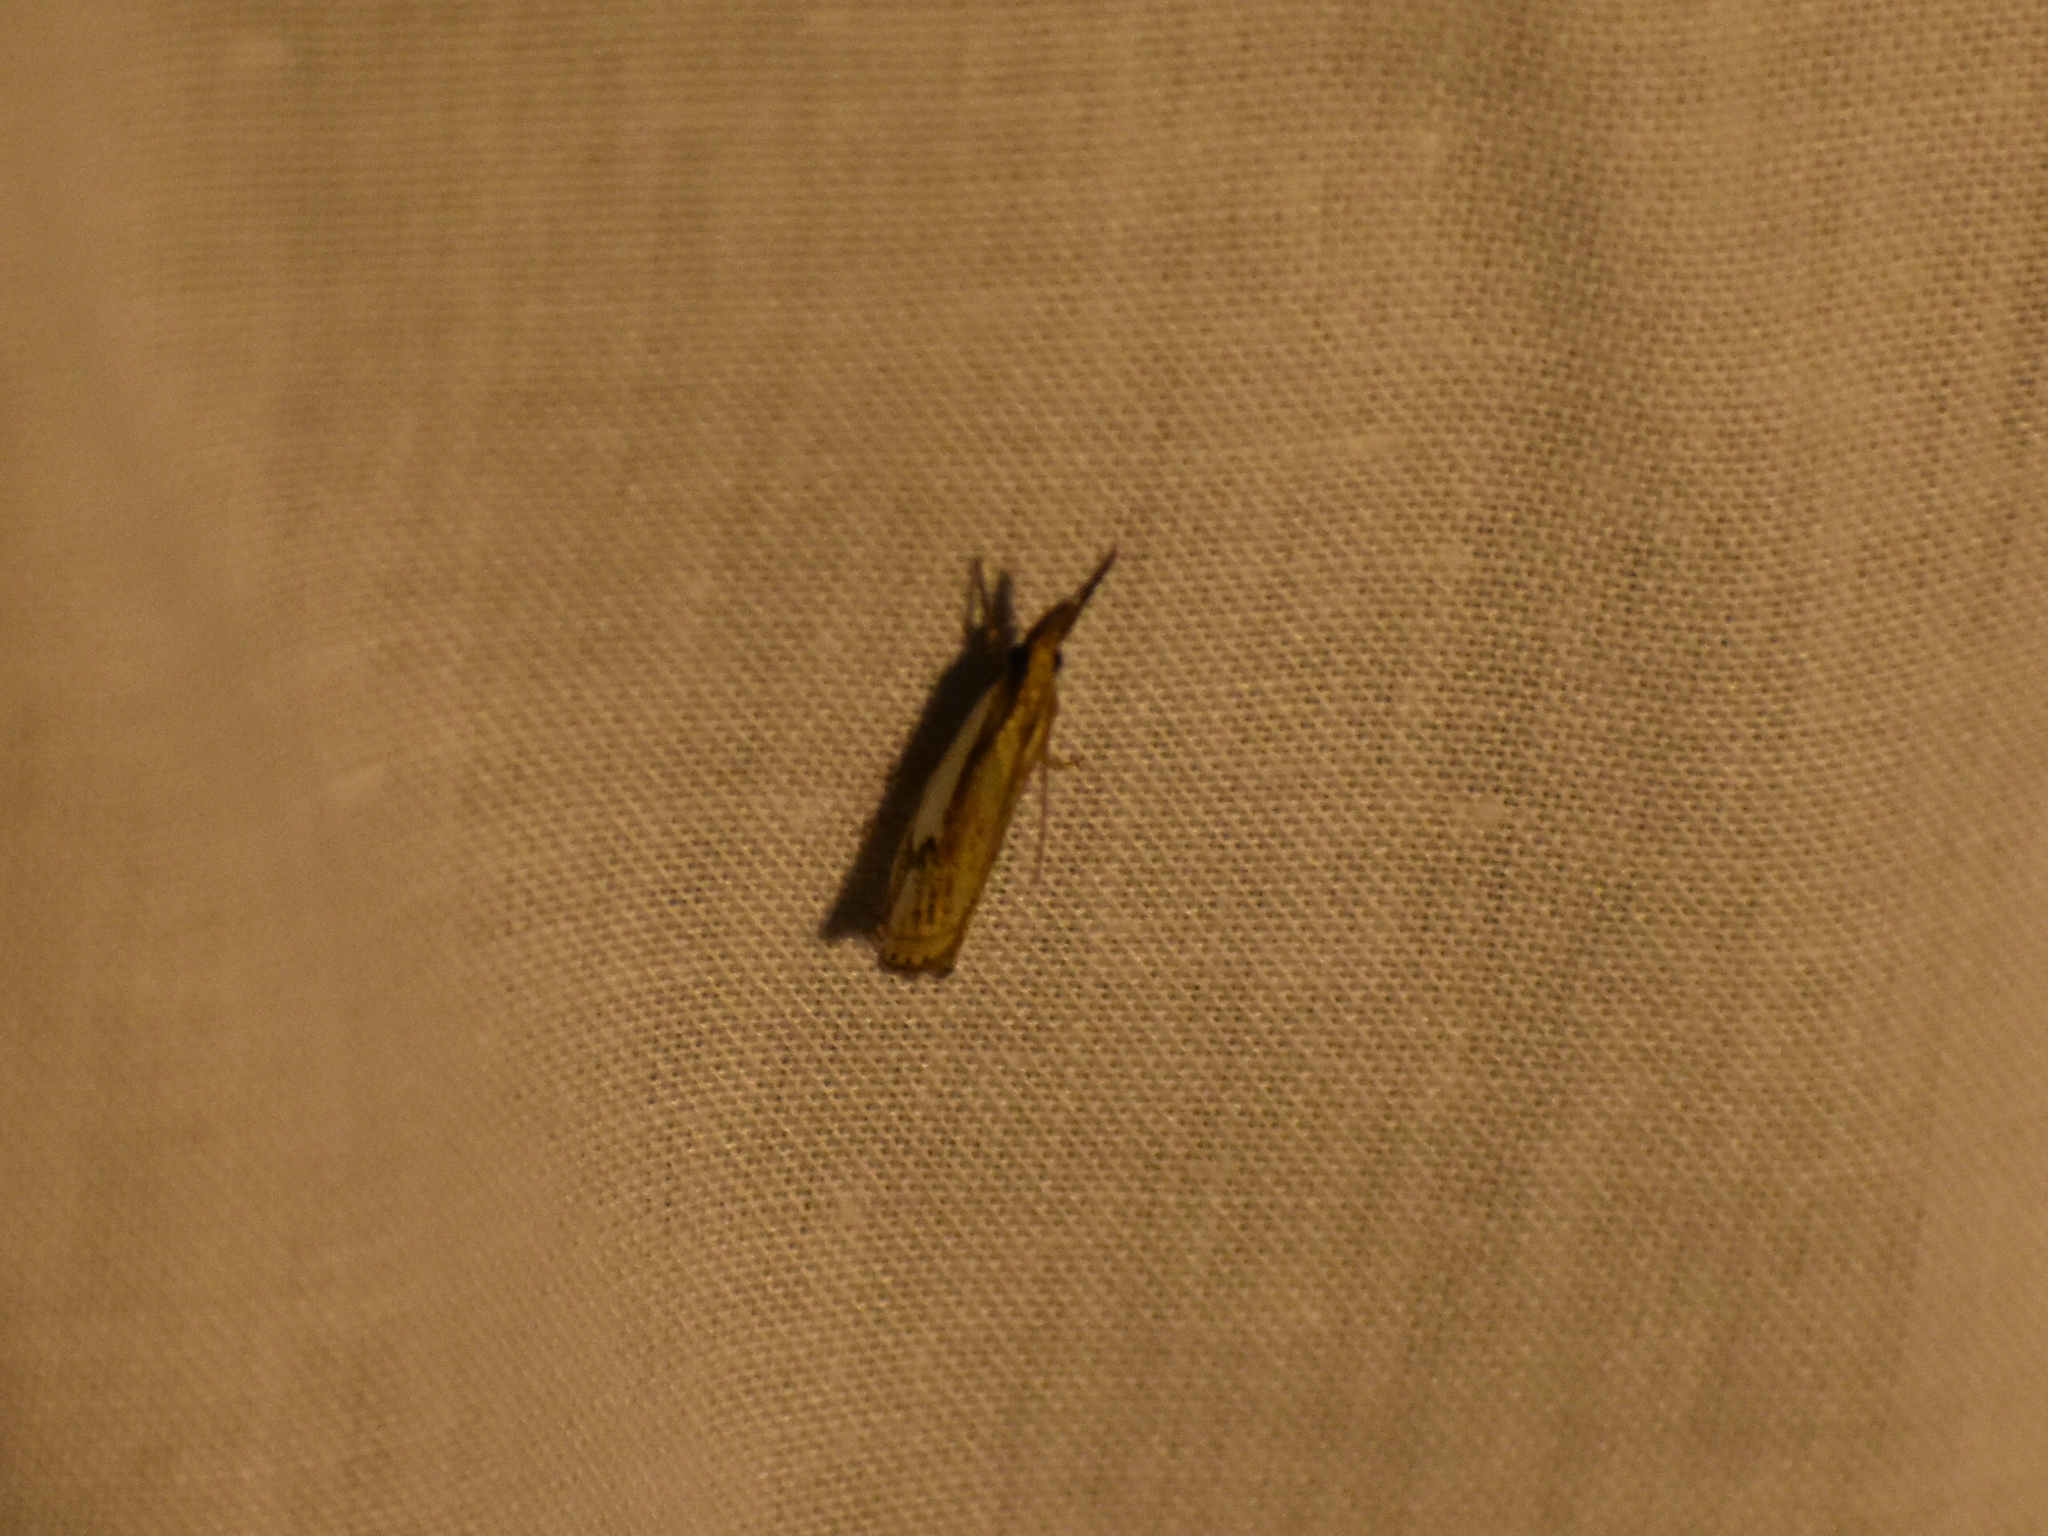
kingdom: Animalia
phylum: Arthropoda
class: Insecta
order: Lepidoptera
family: Crambidae
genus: Crambus
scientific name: Crambus agitatellus
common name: Double-banded grass-veneer
